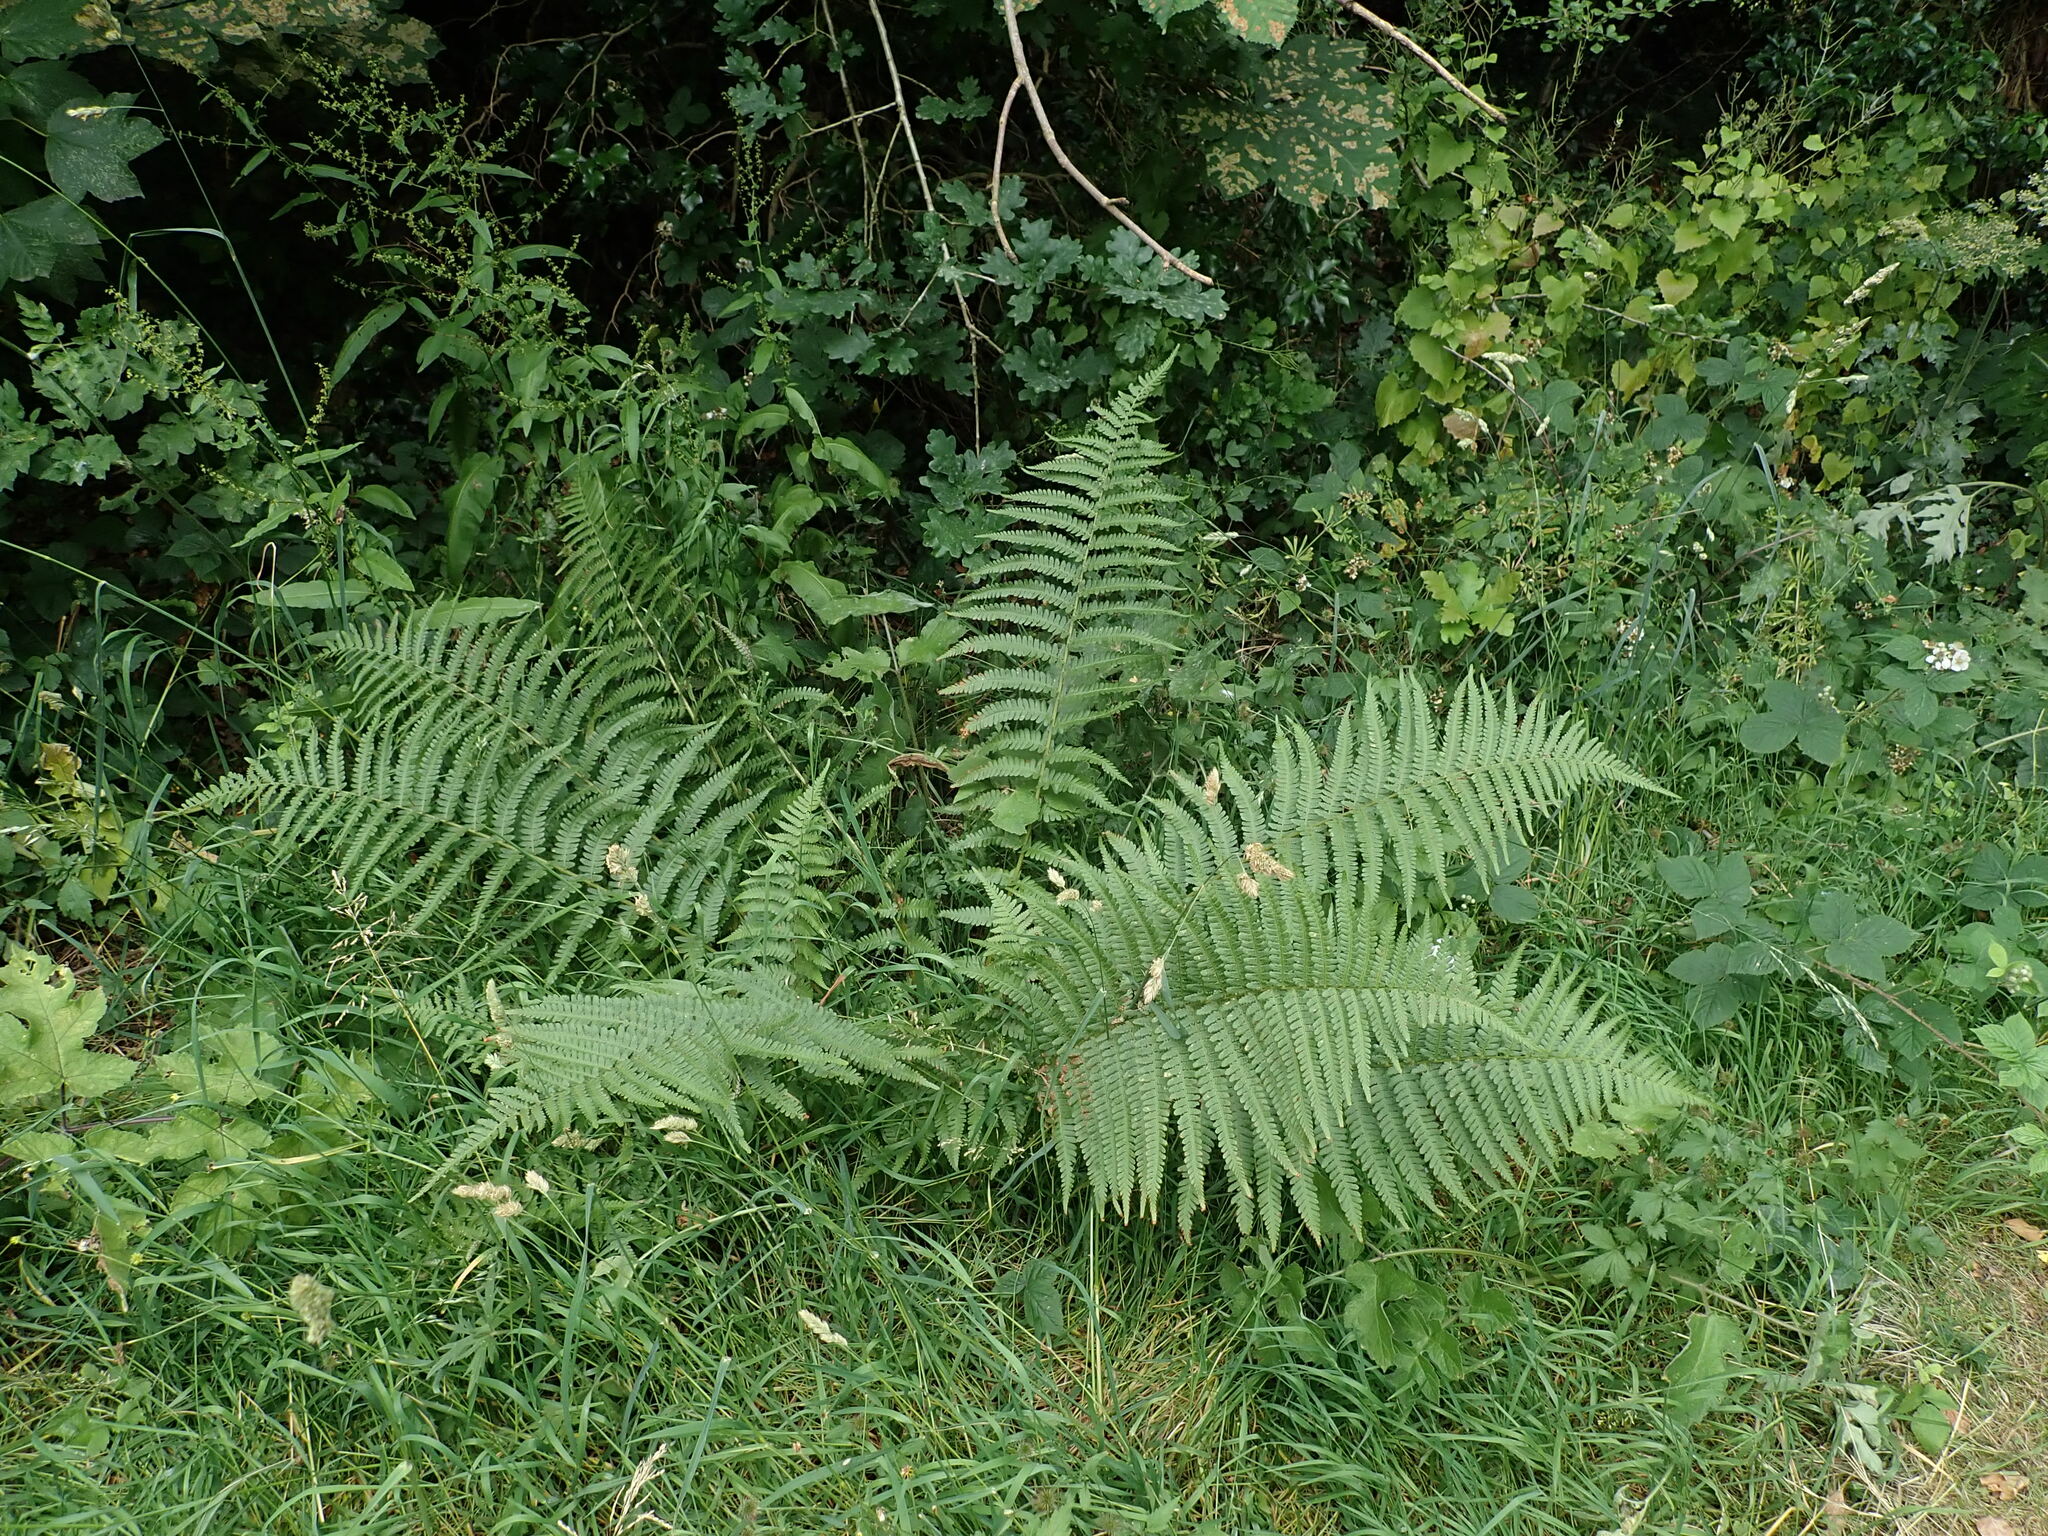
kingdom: Plantae
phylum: Tracheophyta
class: Polypodiopsida
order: Polypodiales
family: Dryopteridaceae
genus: Dryopteris
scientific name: Dryopteris filix-mas
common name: Male fern
